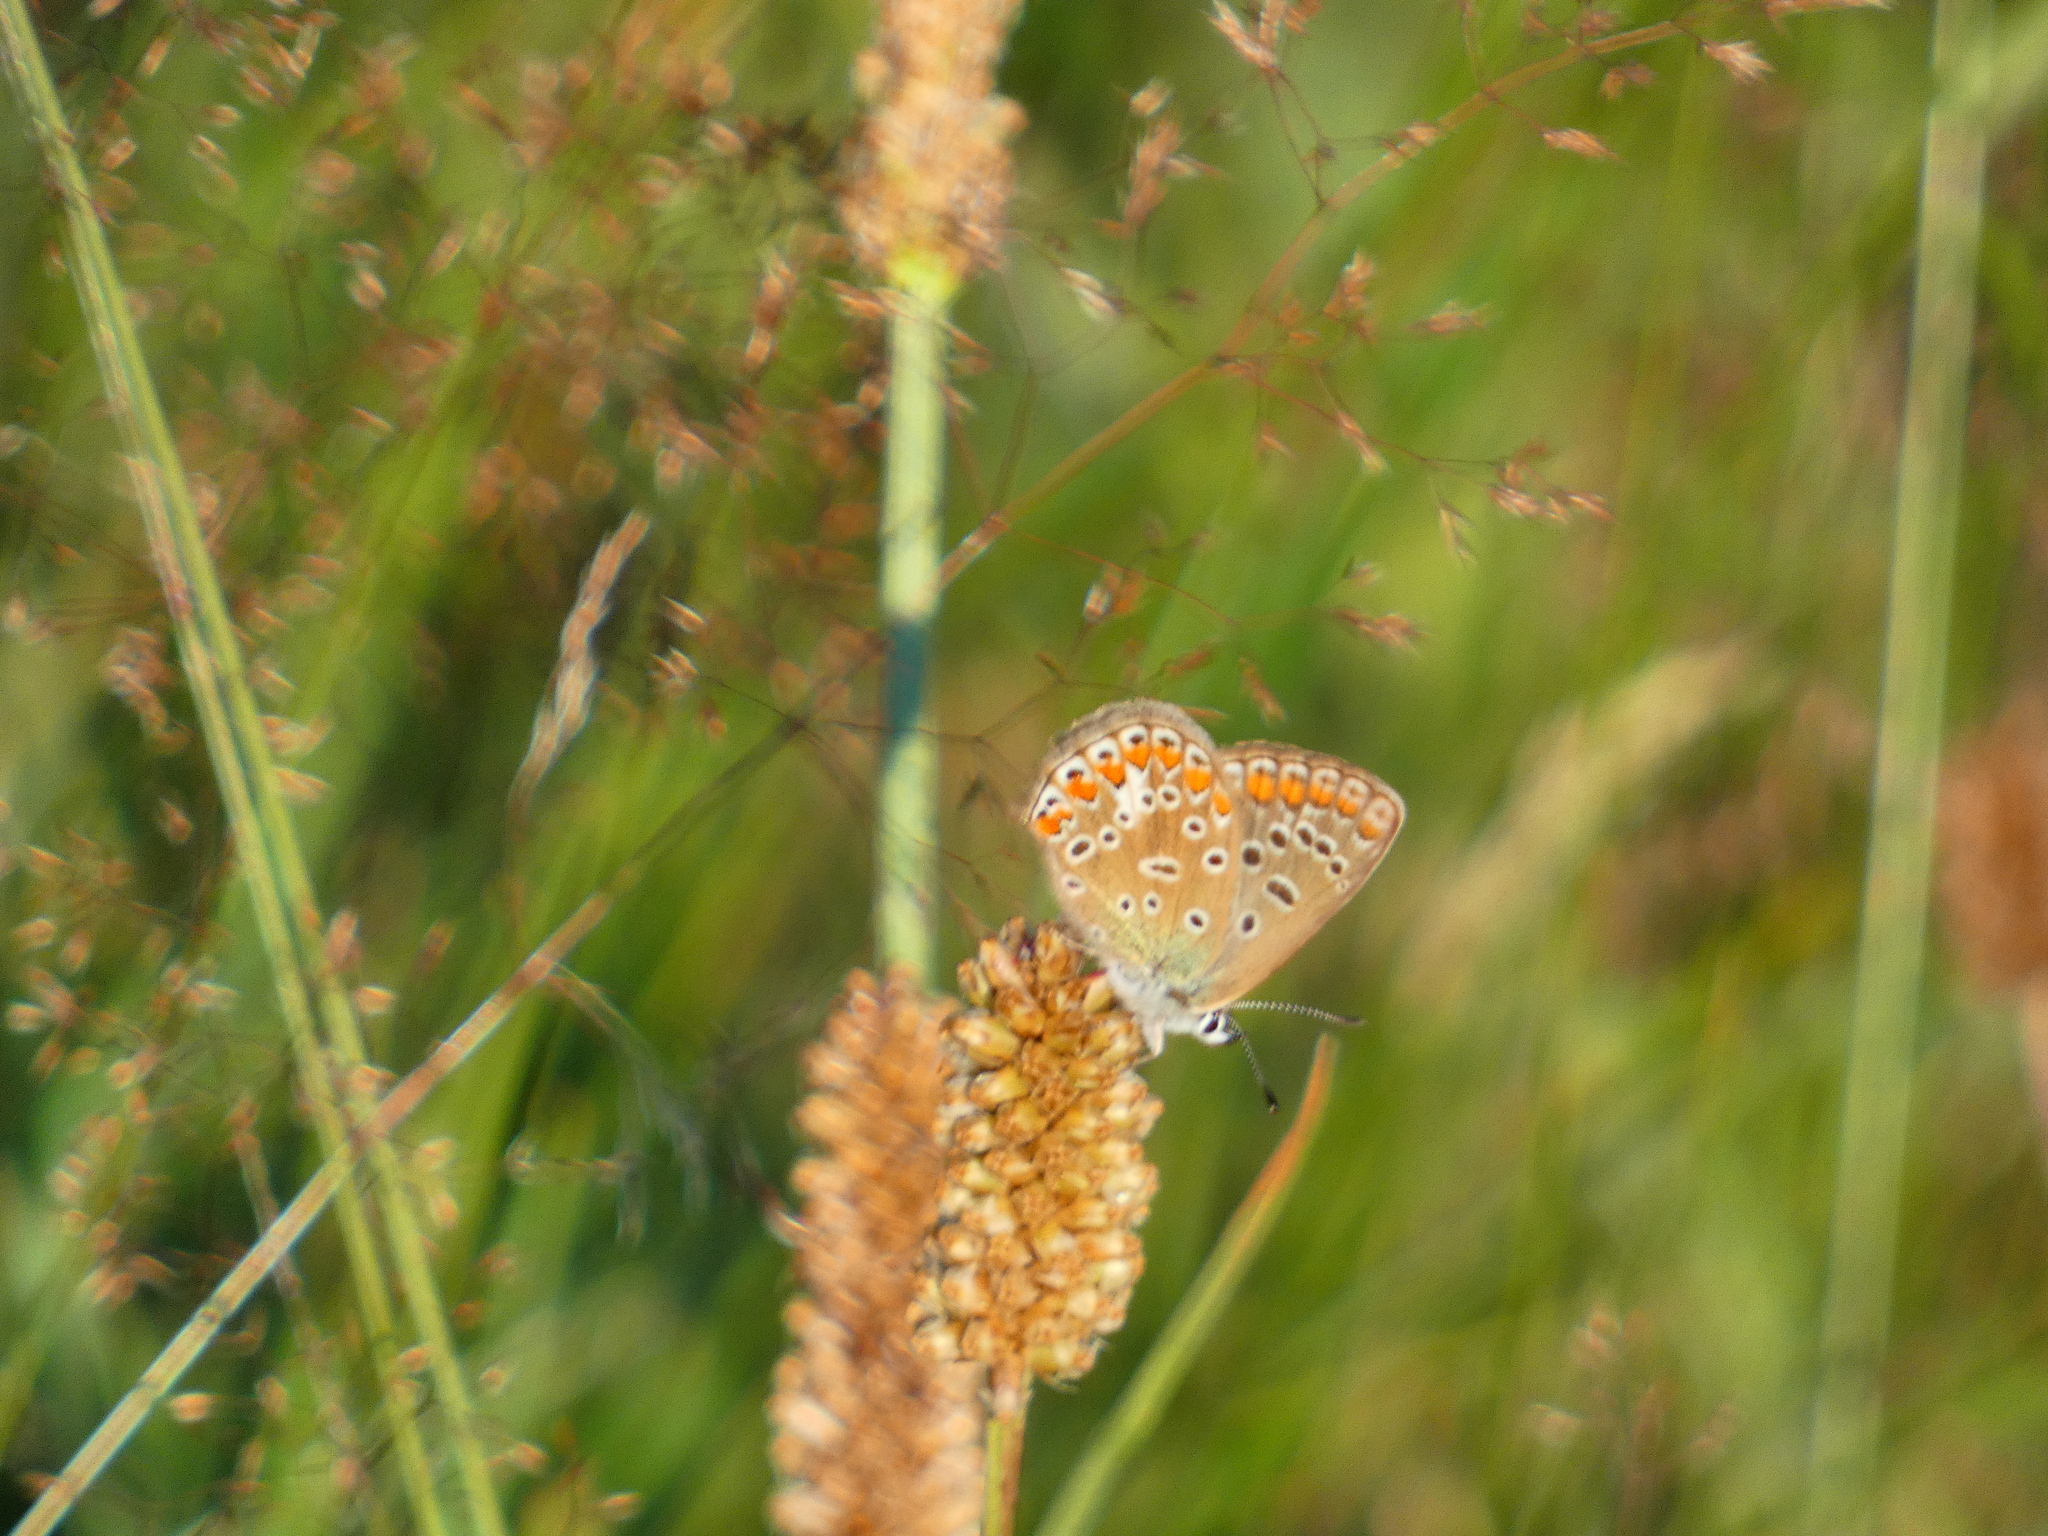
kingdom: Animalia
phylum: Arthropoda
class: Insecta
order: Lepidoptera
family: Lycaenidae
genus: Polyommatus
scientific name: Polyommatus icarus
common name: Common blue
